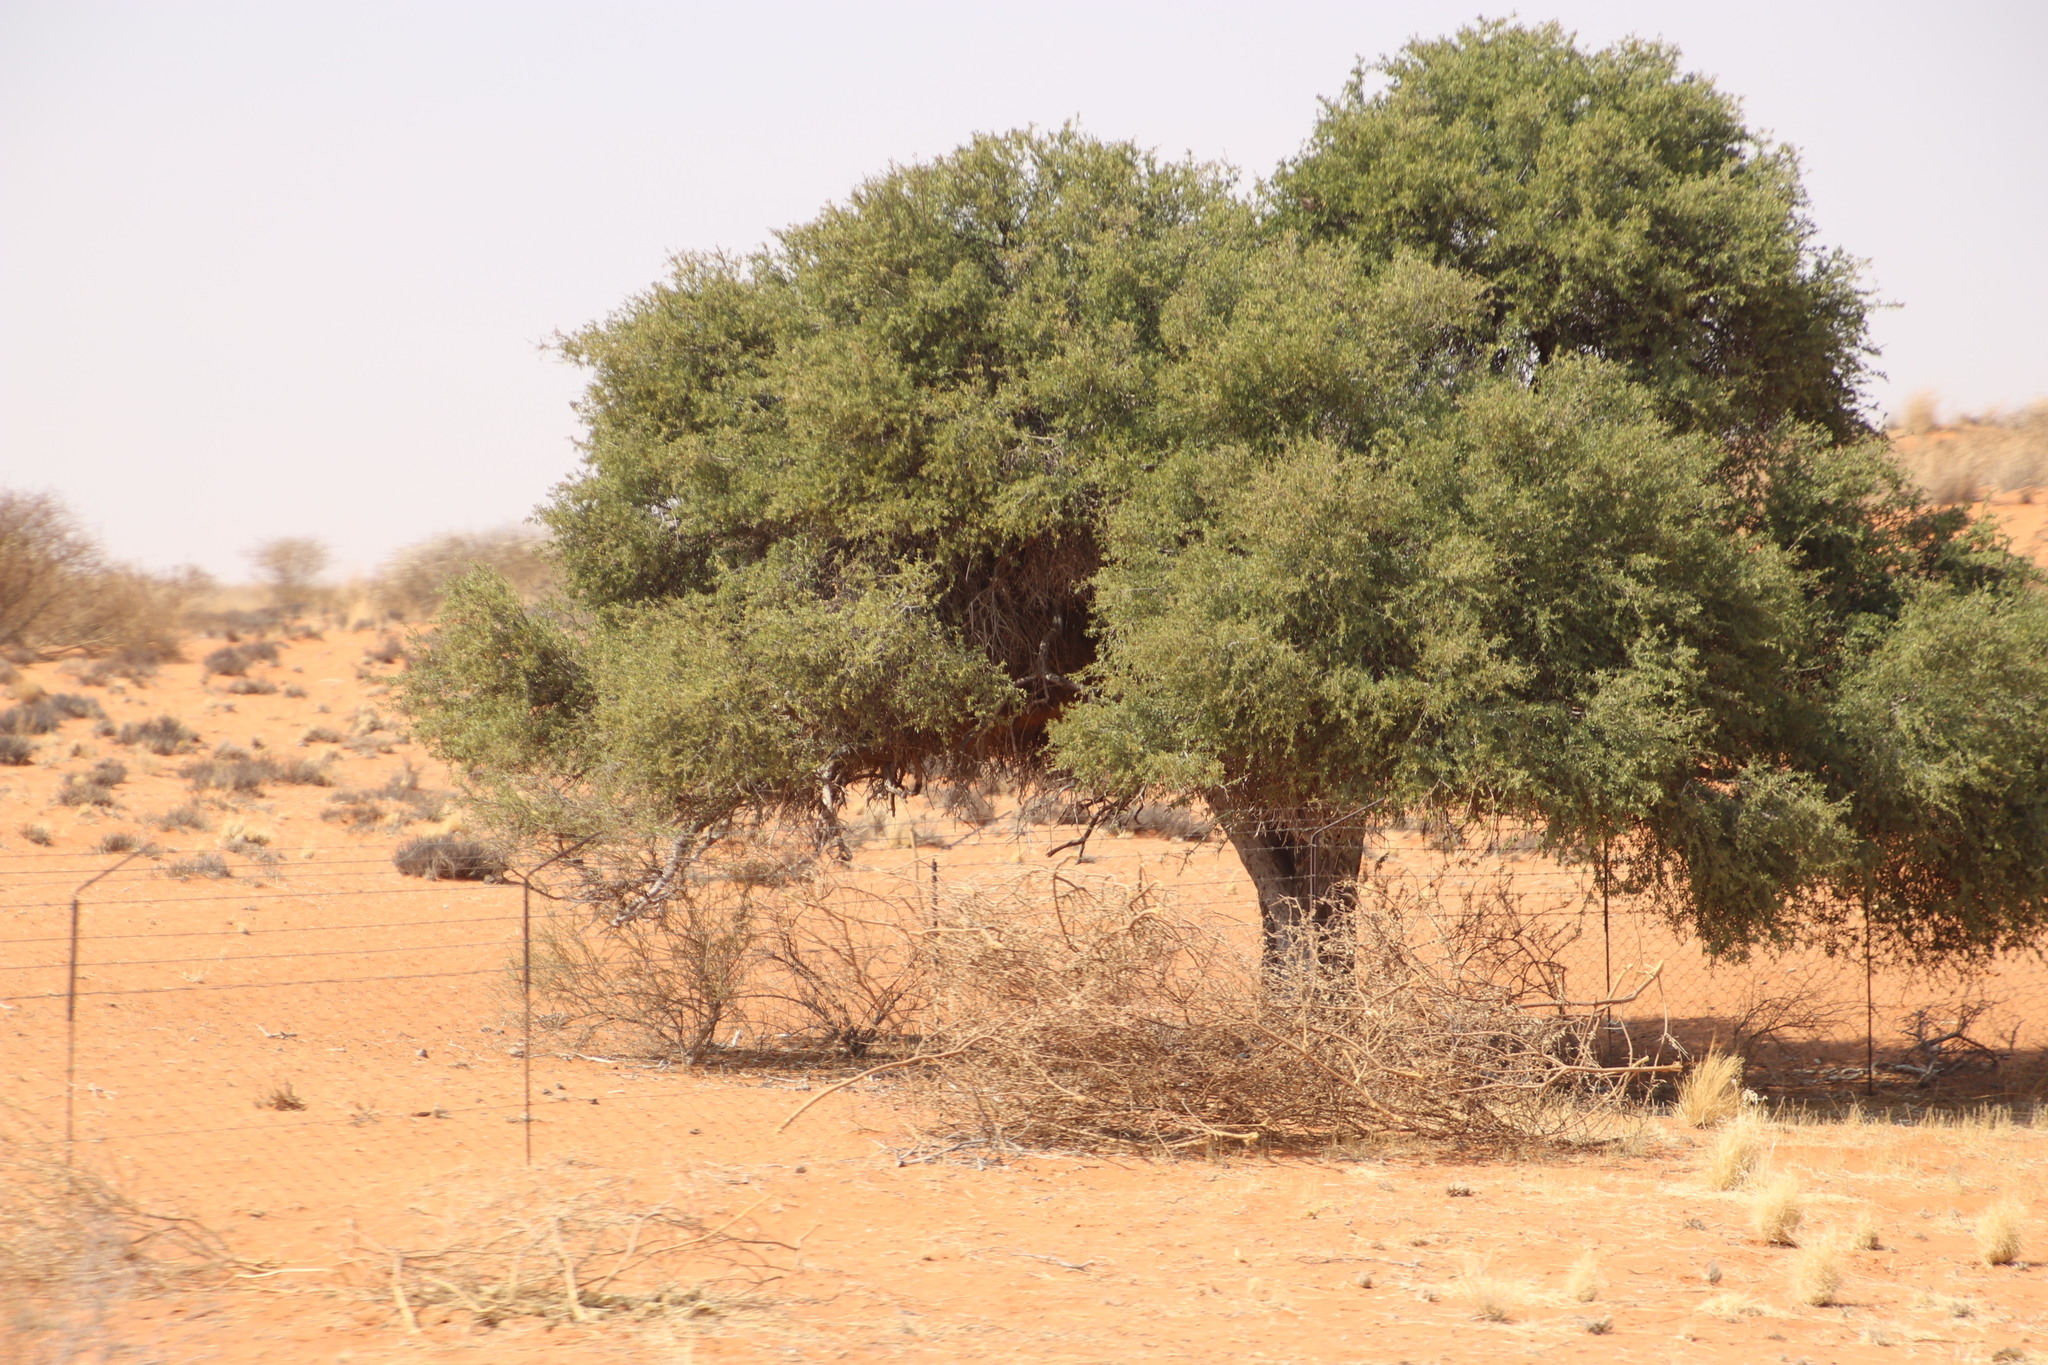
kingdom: Plantae
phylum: Tracheophyta
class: Magnoliopsida
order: Brassicales
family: Capparaceae
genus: Boscia
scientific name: Boscia albitrunca
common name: Caper bush
